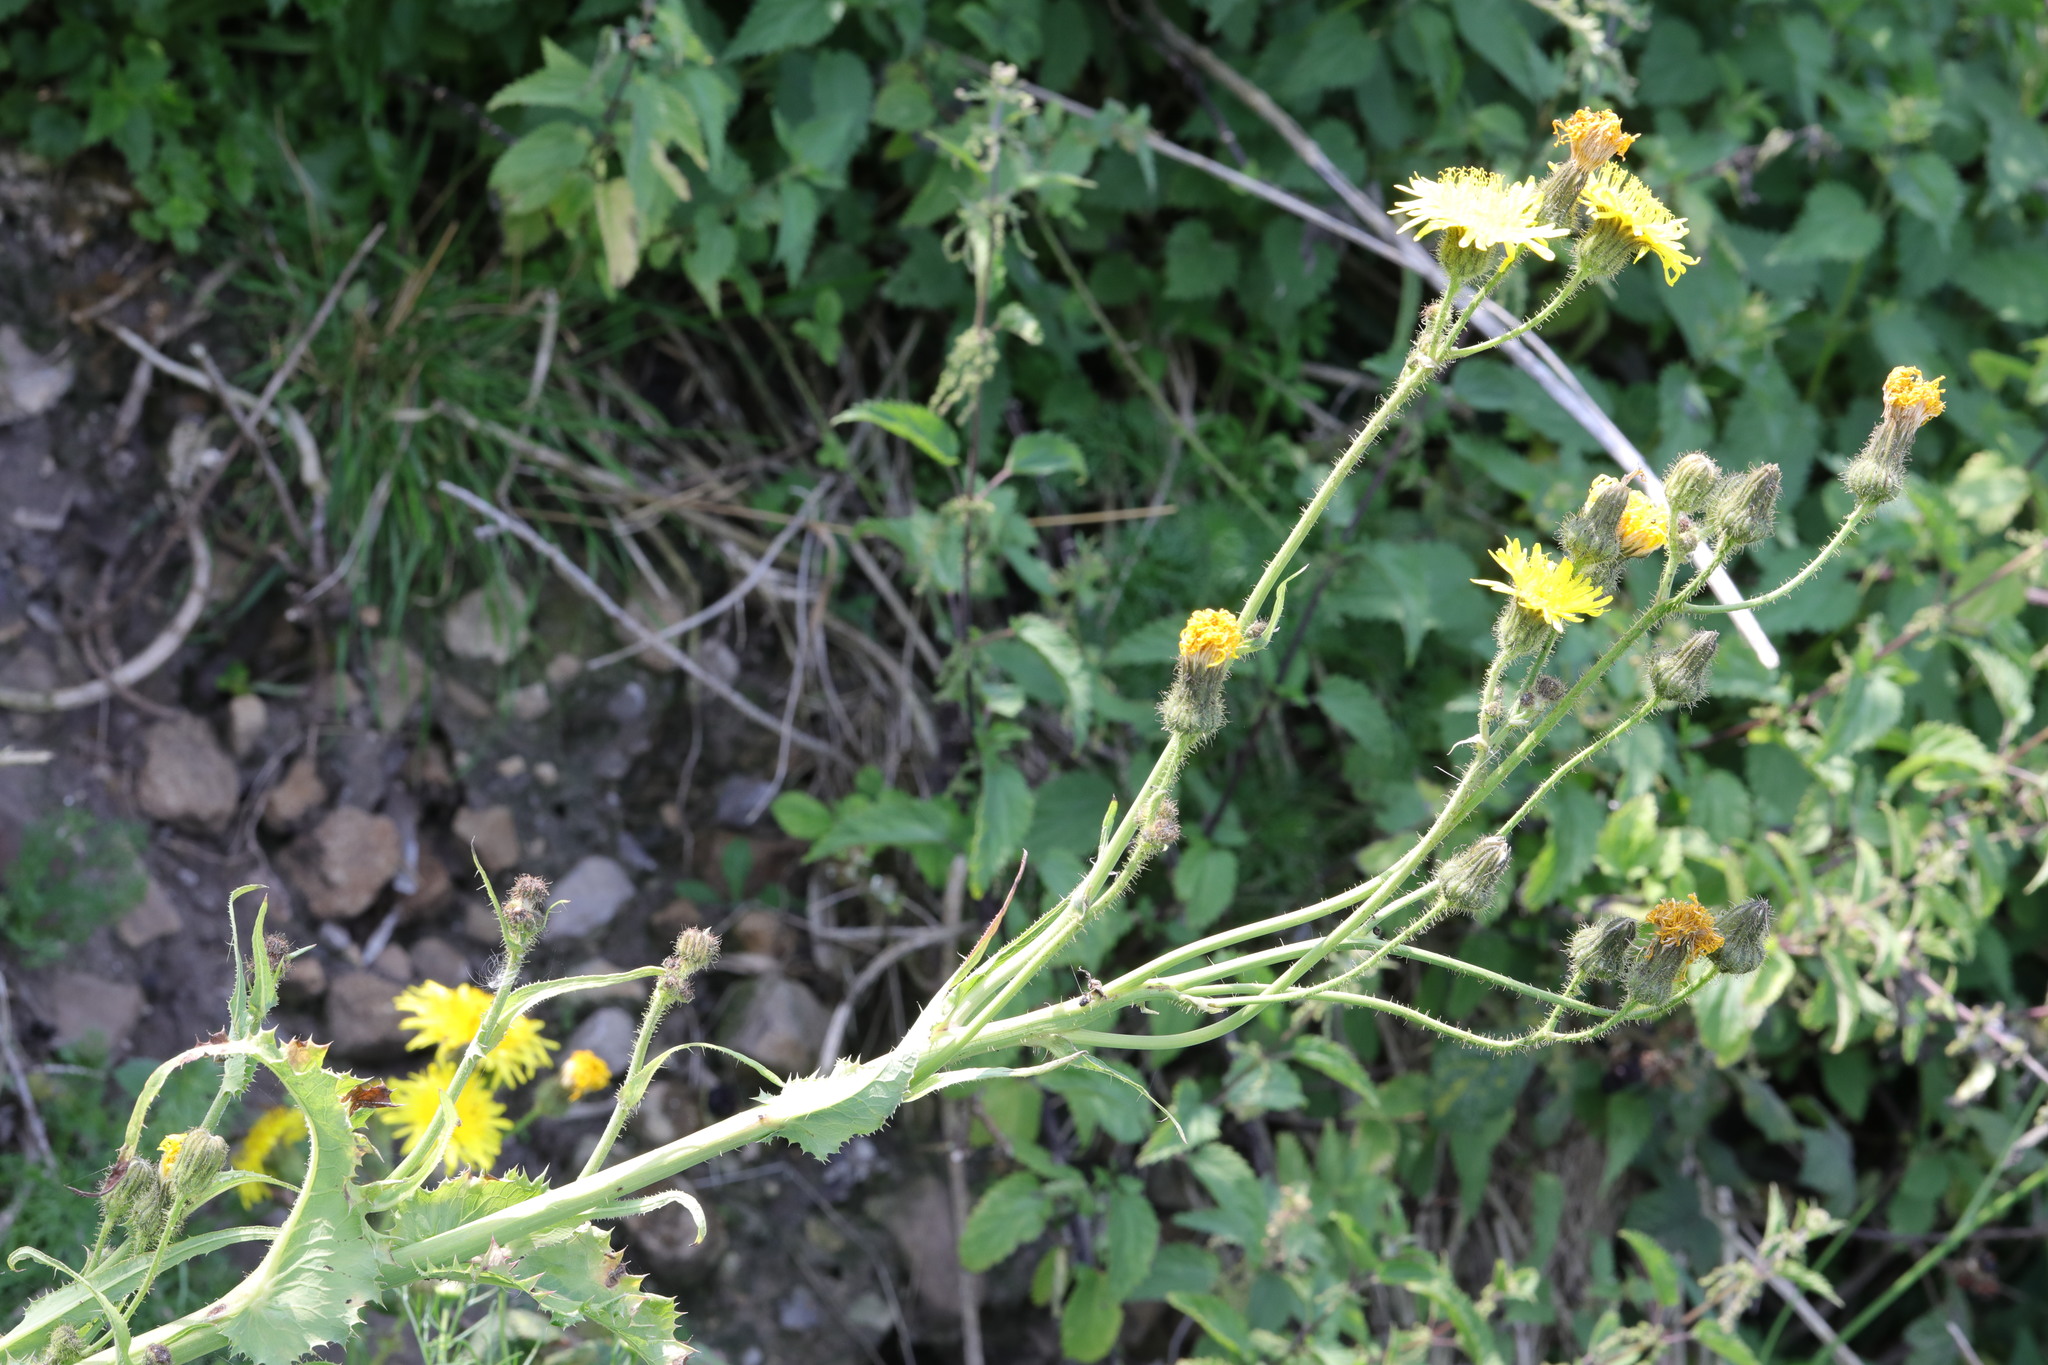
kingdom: Plantae
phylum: Tracheophyta
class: Magnoliopsida
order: Asterales
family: Asteraceae
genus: Sonchus
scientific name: Sonchus arvensis
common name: Perennial sow-thistle
